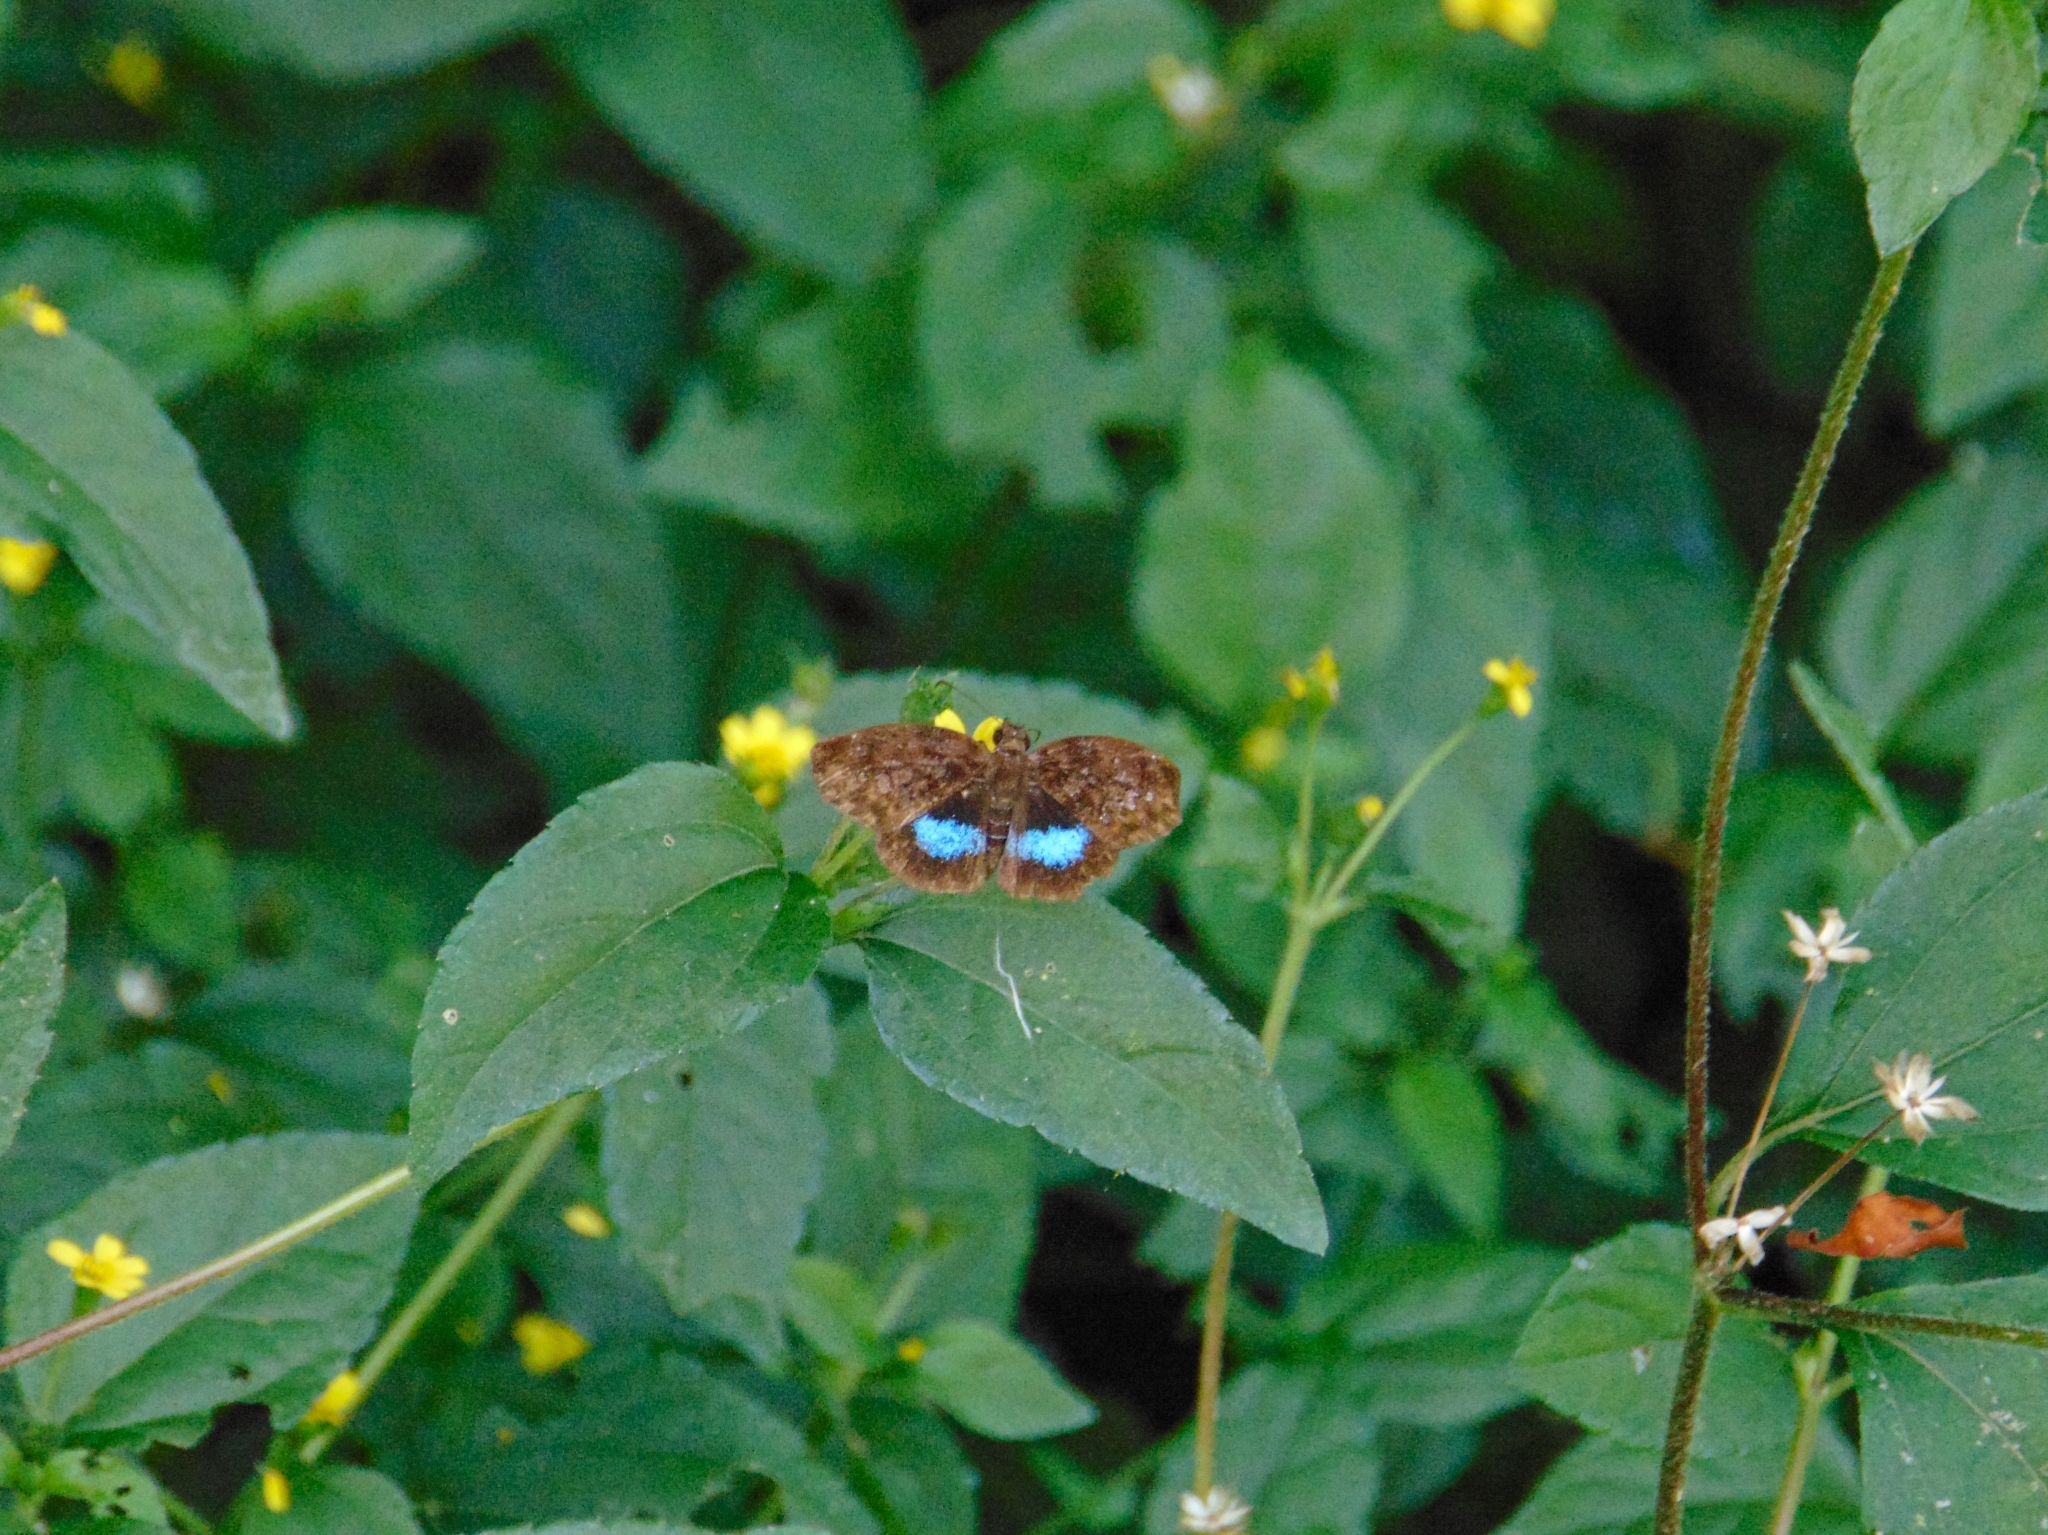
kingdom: Animalia
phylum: Arthropoda
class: Insecta
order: Lepidoptera
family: Hesperiidae
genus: Sostrata
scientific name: Sostrata
